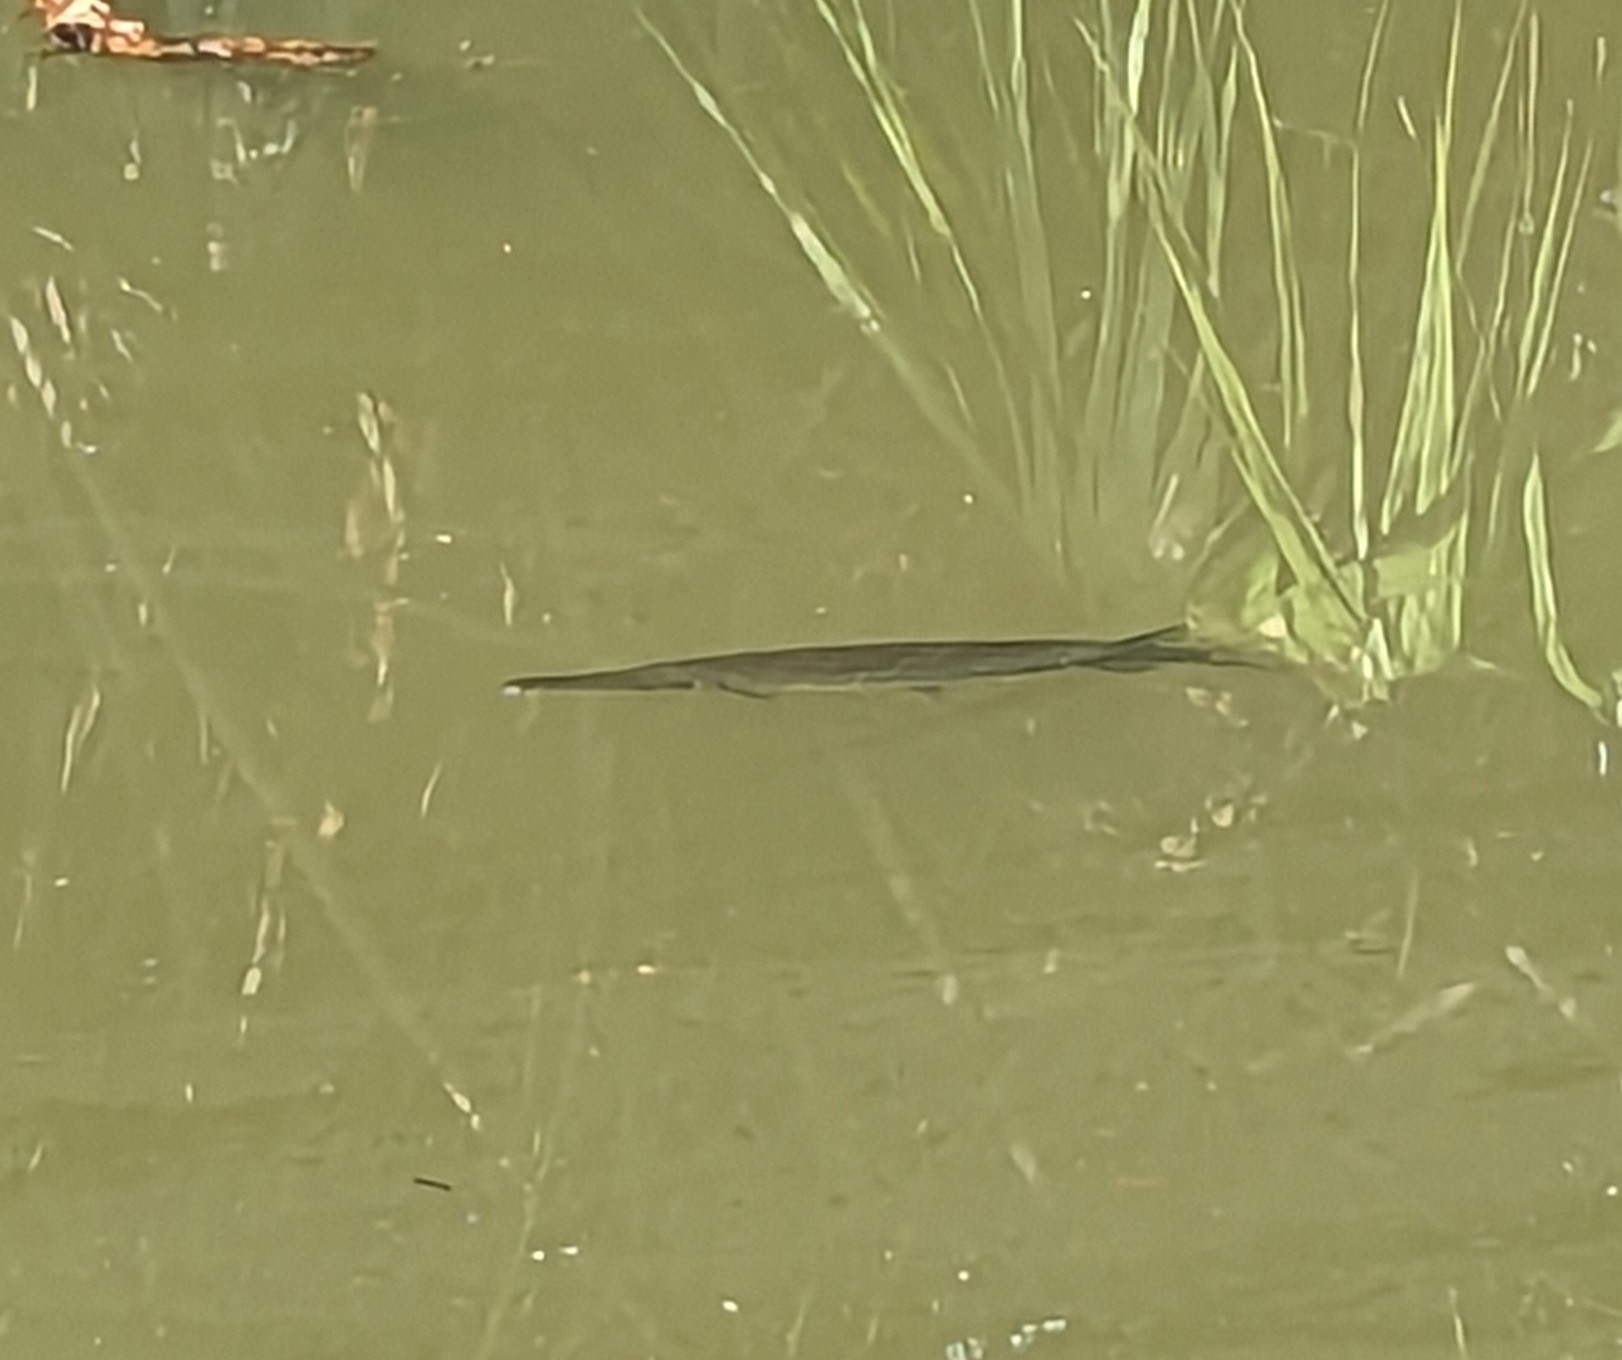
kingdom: Animalia
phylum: Chordata
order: Lepisosteiformes
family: Lepisosteidae
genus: Lepisosteus
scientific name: Lepisosteus platyrhincus
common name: Florida gar
